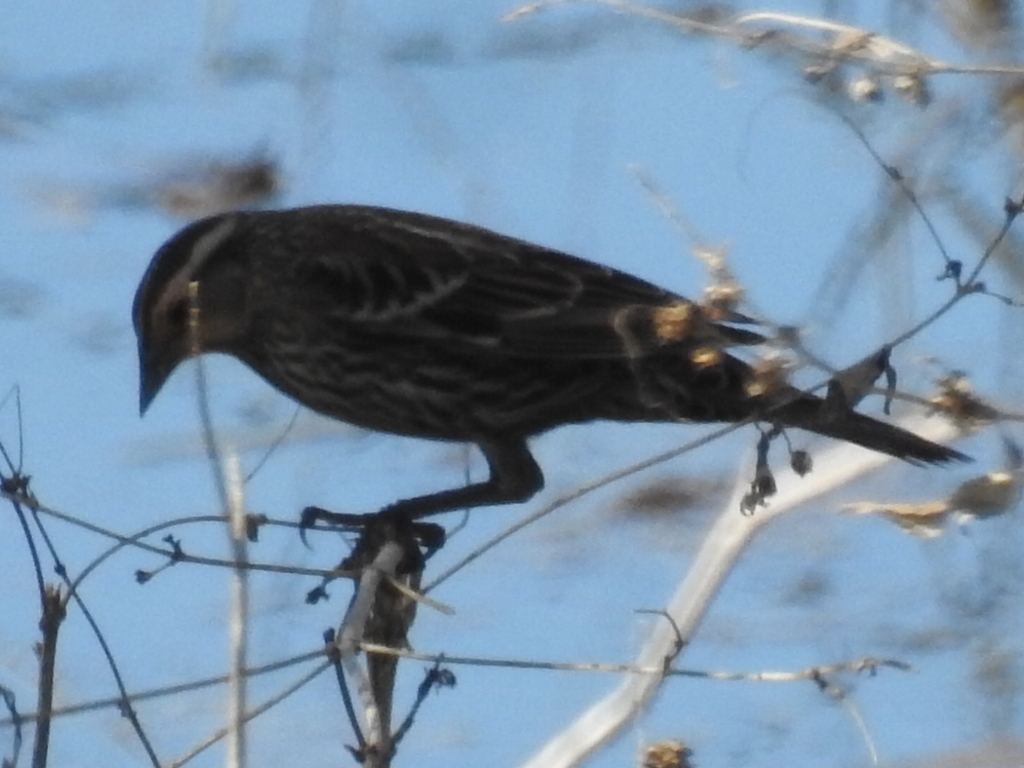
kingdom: Animalia
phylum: Chordata
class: Aves
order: Passeriformes
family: Icteridae
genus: Agelaius
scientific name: Agelaius phoeniceus
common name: Red-winged blackbird
